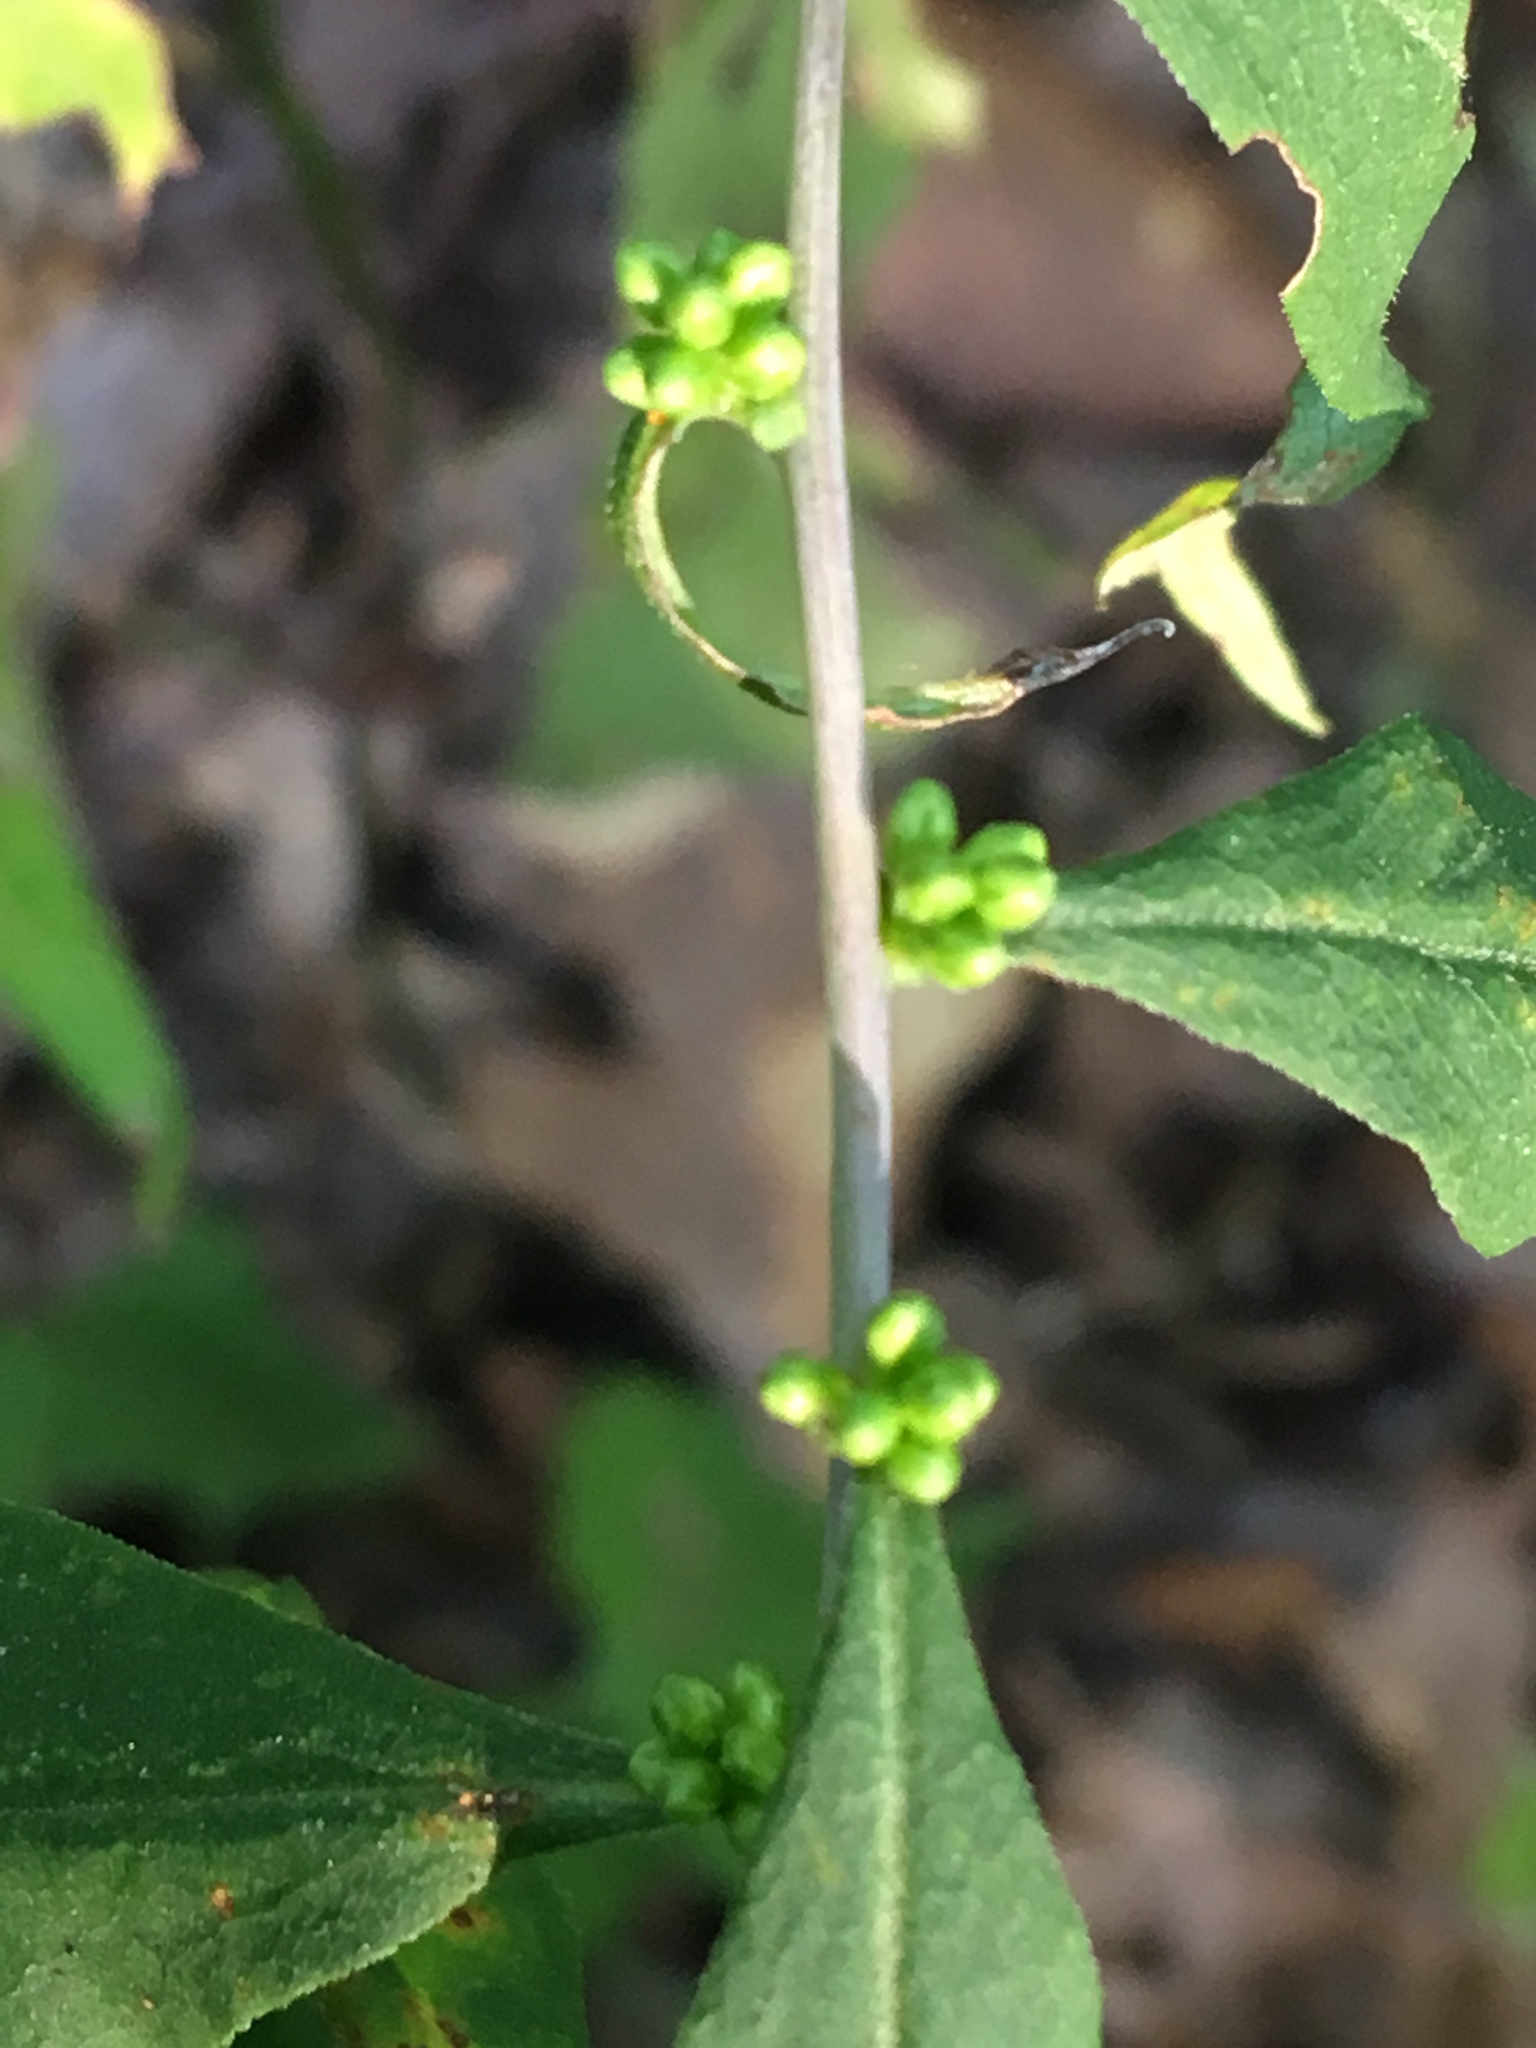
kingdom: Plantae
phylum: Tracheophyta
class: Magnoliopsida
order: Asterales
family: Asteraceae
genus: Solidago
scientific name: Solidago caesia
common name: Woodland goldenrod
